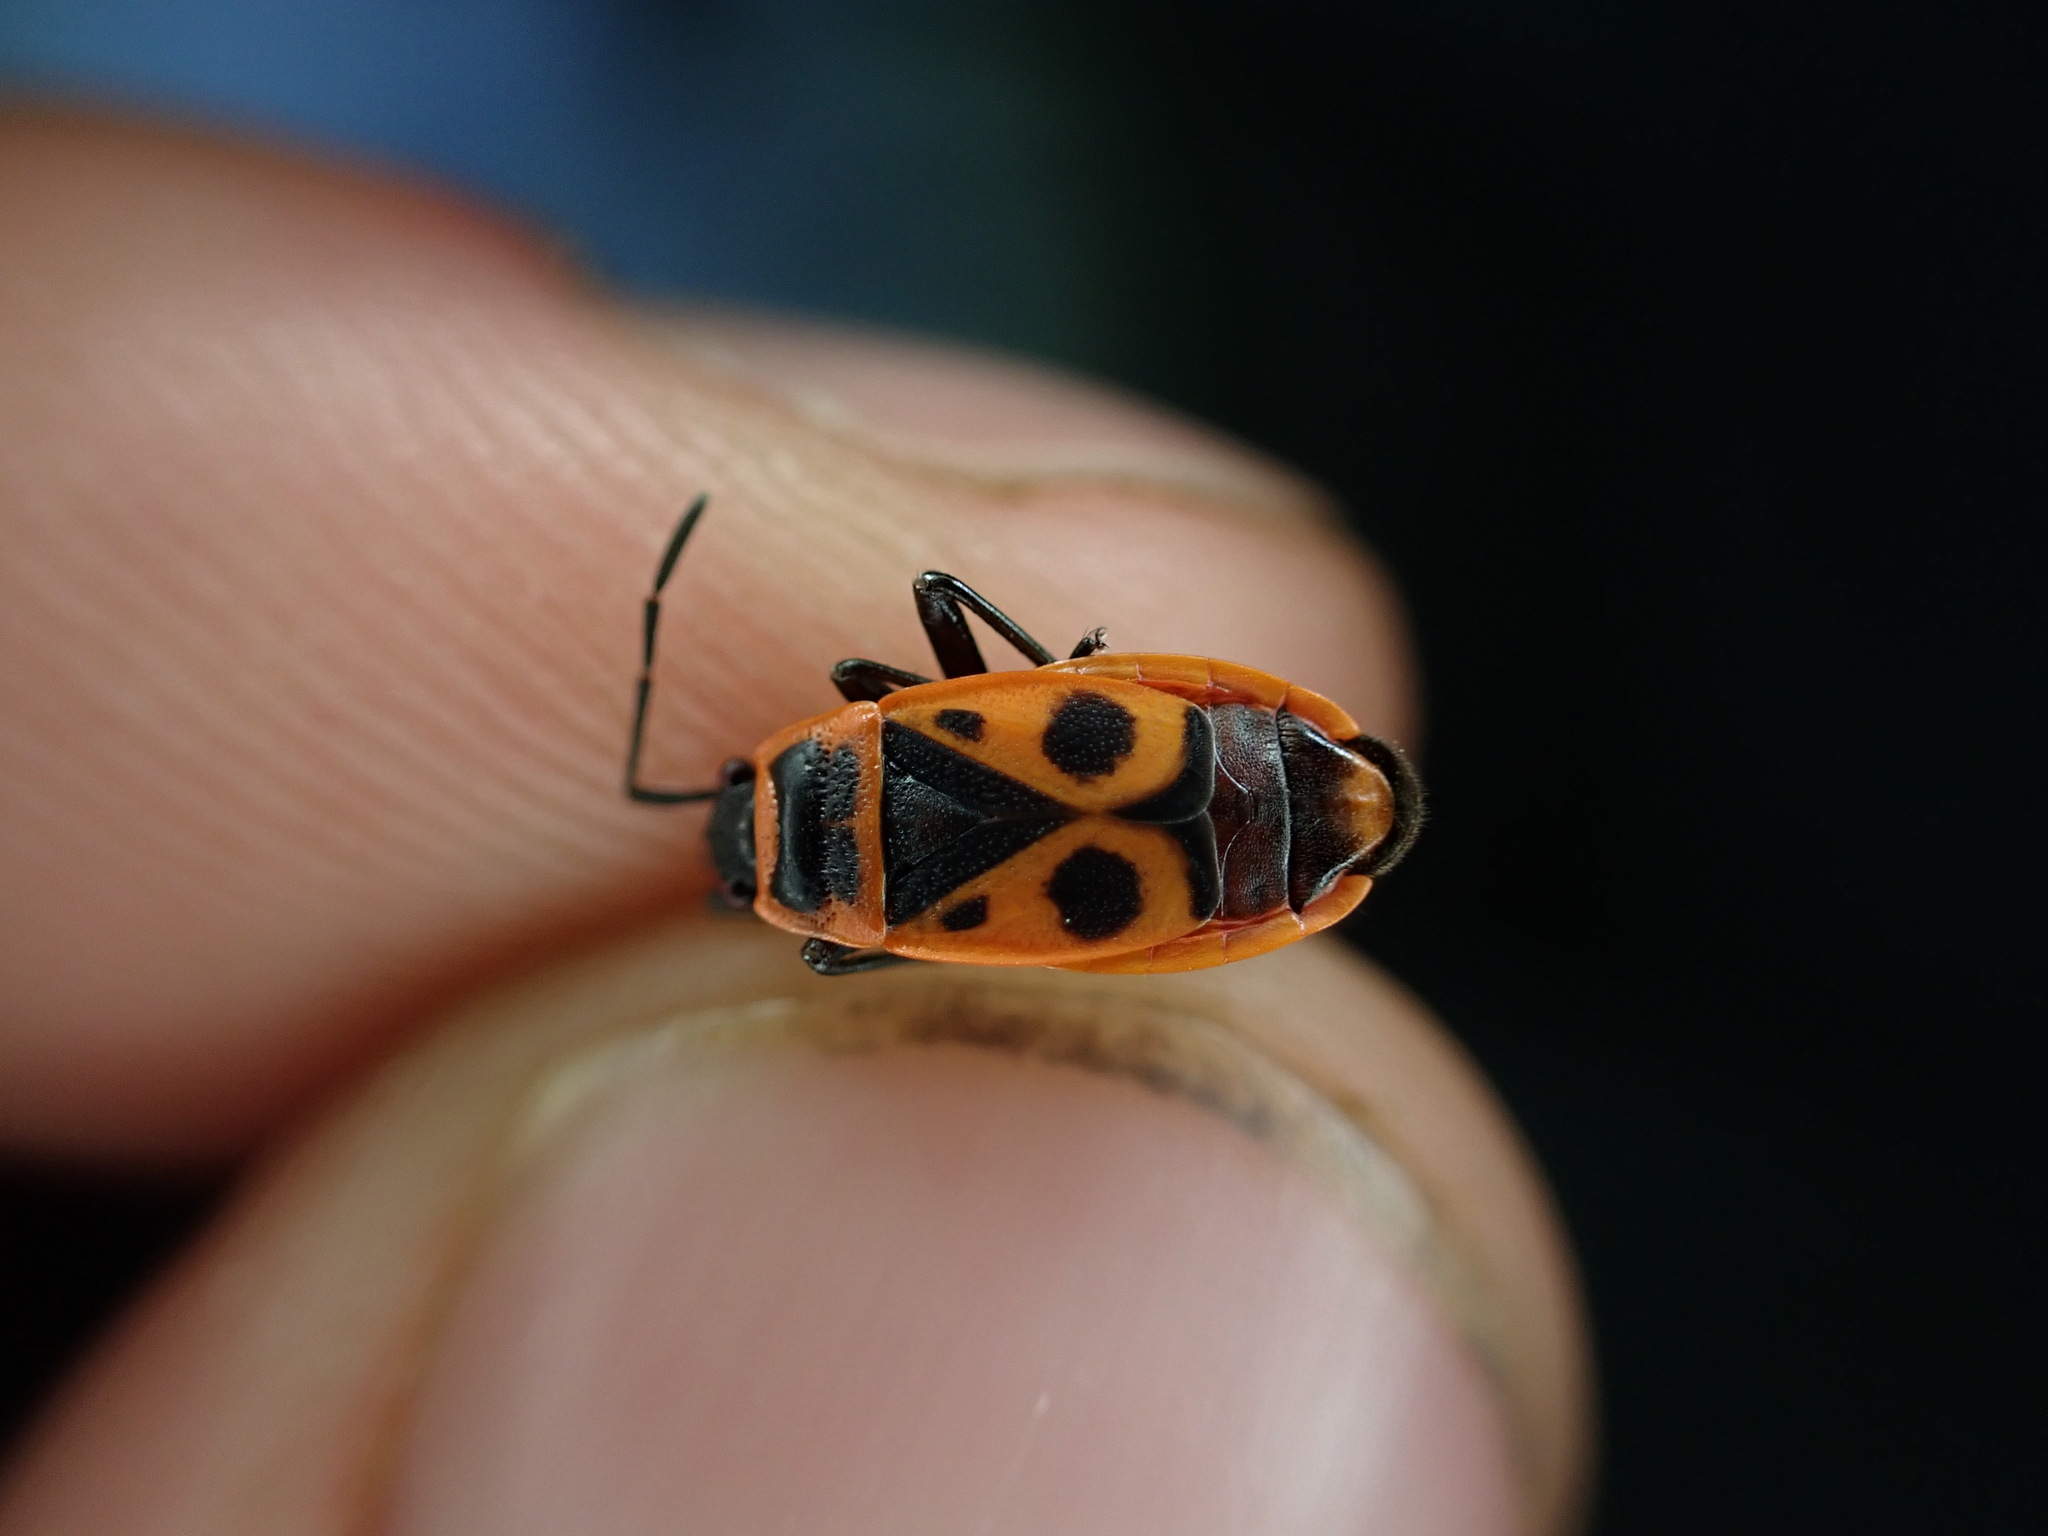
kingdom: Animalia
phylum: Arthropoda
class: Insecta
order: Hemiptera
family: Pyrrhocoridae
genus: Pyrrhocoris
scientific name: Pyrrhocoris apterus
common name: Firebug
